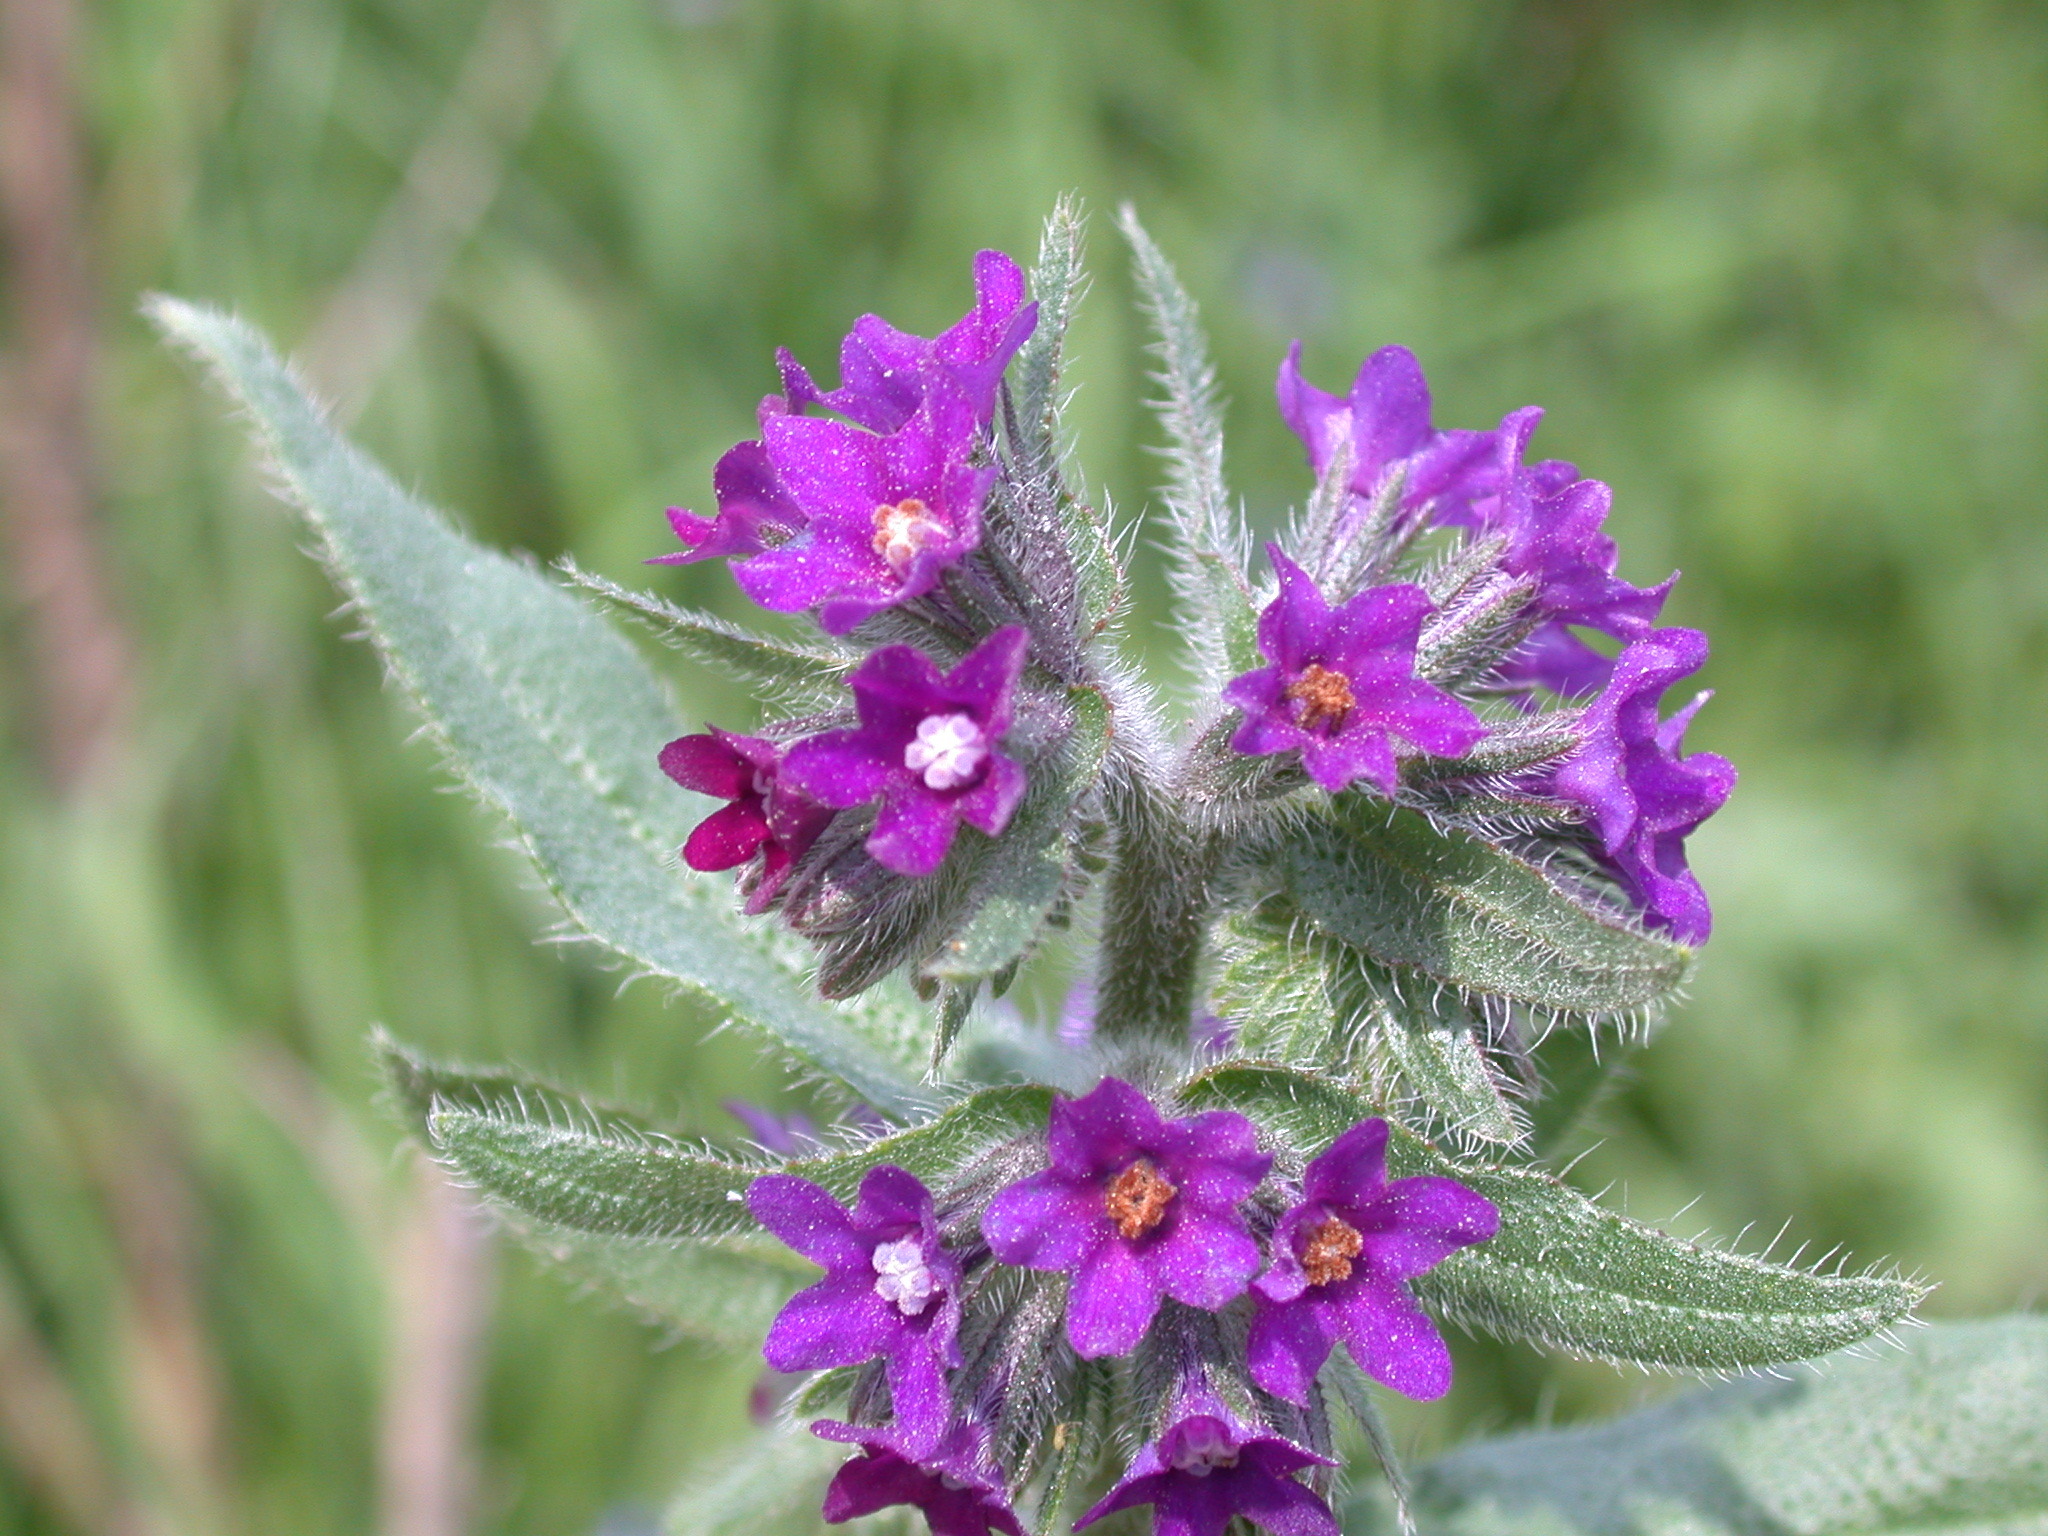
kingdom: Plantae
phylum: Tracheophyta
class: Magnoliopsida
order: Boraginales
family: Boraginaceae
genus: Anchusa
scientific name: Anchusa officinalis
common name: Alkanet
